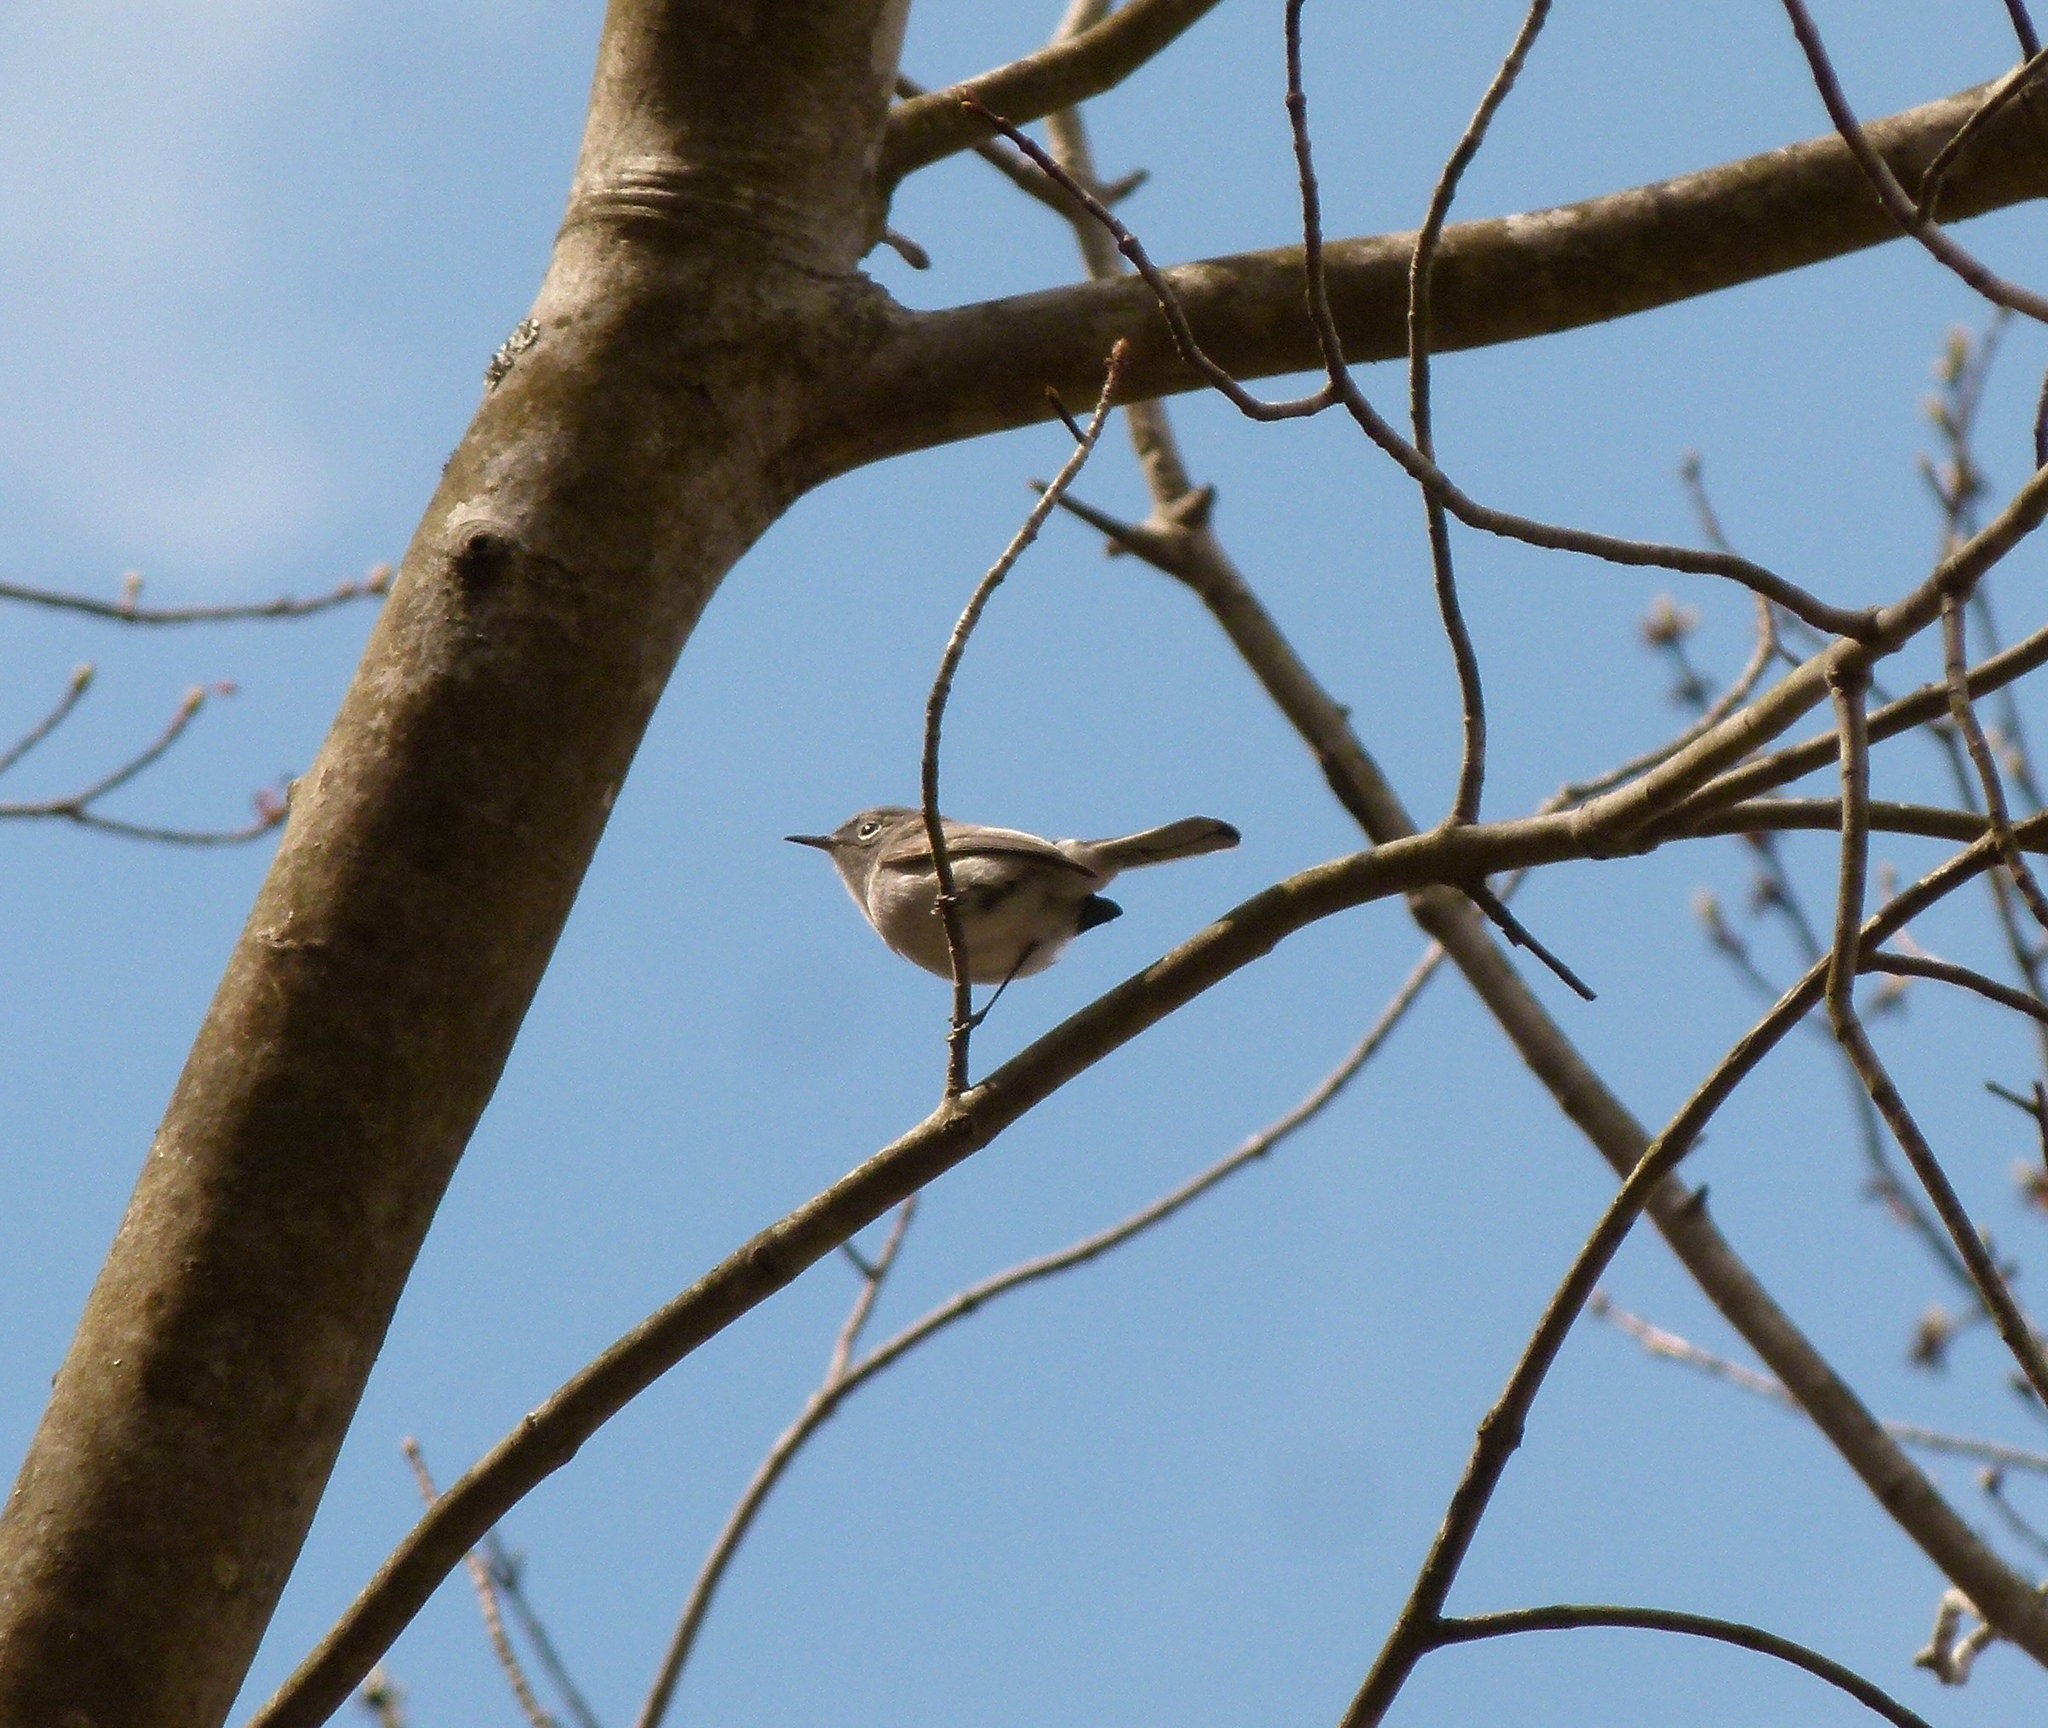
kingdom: Animalia
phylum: Chordata
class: Aves
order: Passeriformes
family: Polioptilidae
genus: Polioptila
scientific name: Polioptila caerulea
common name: Blue-gray gnatcatcher
